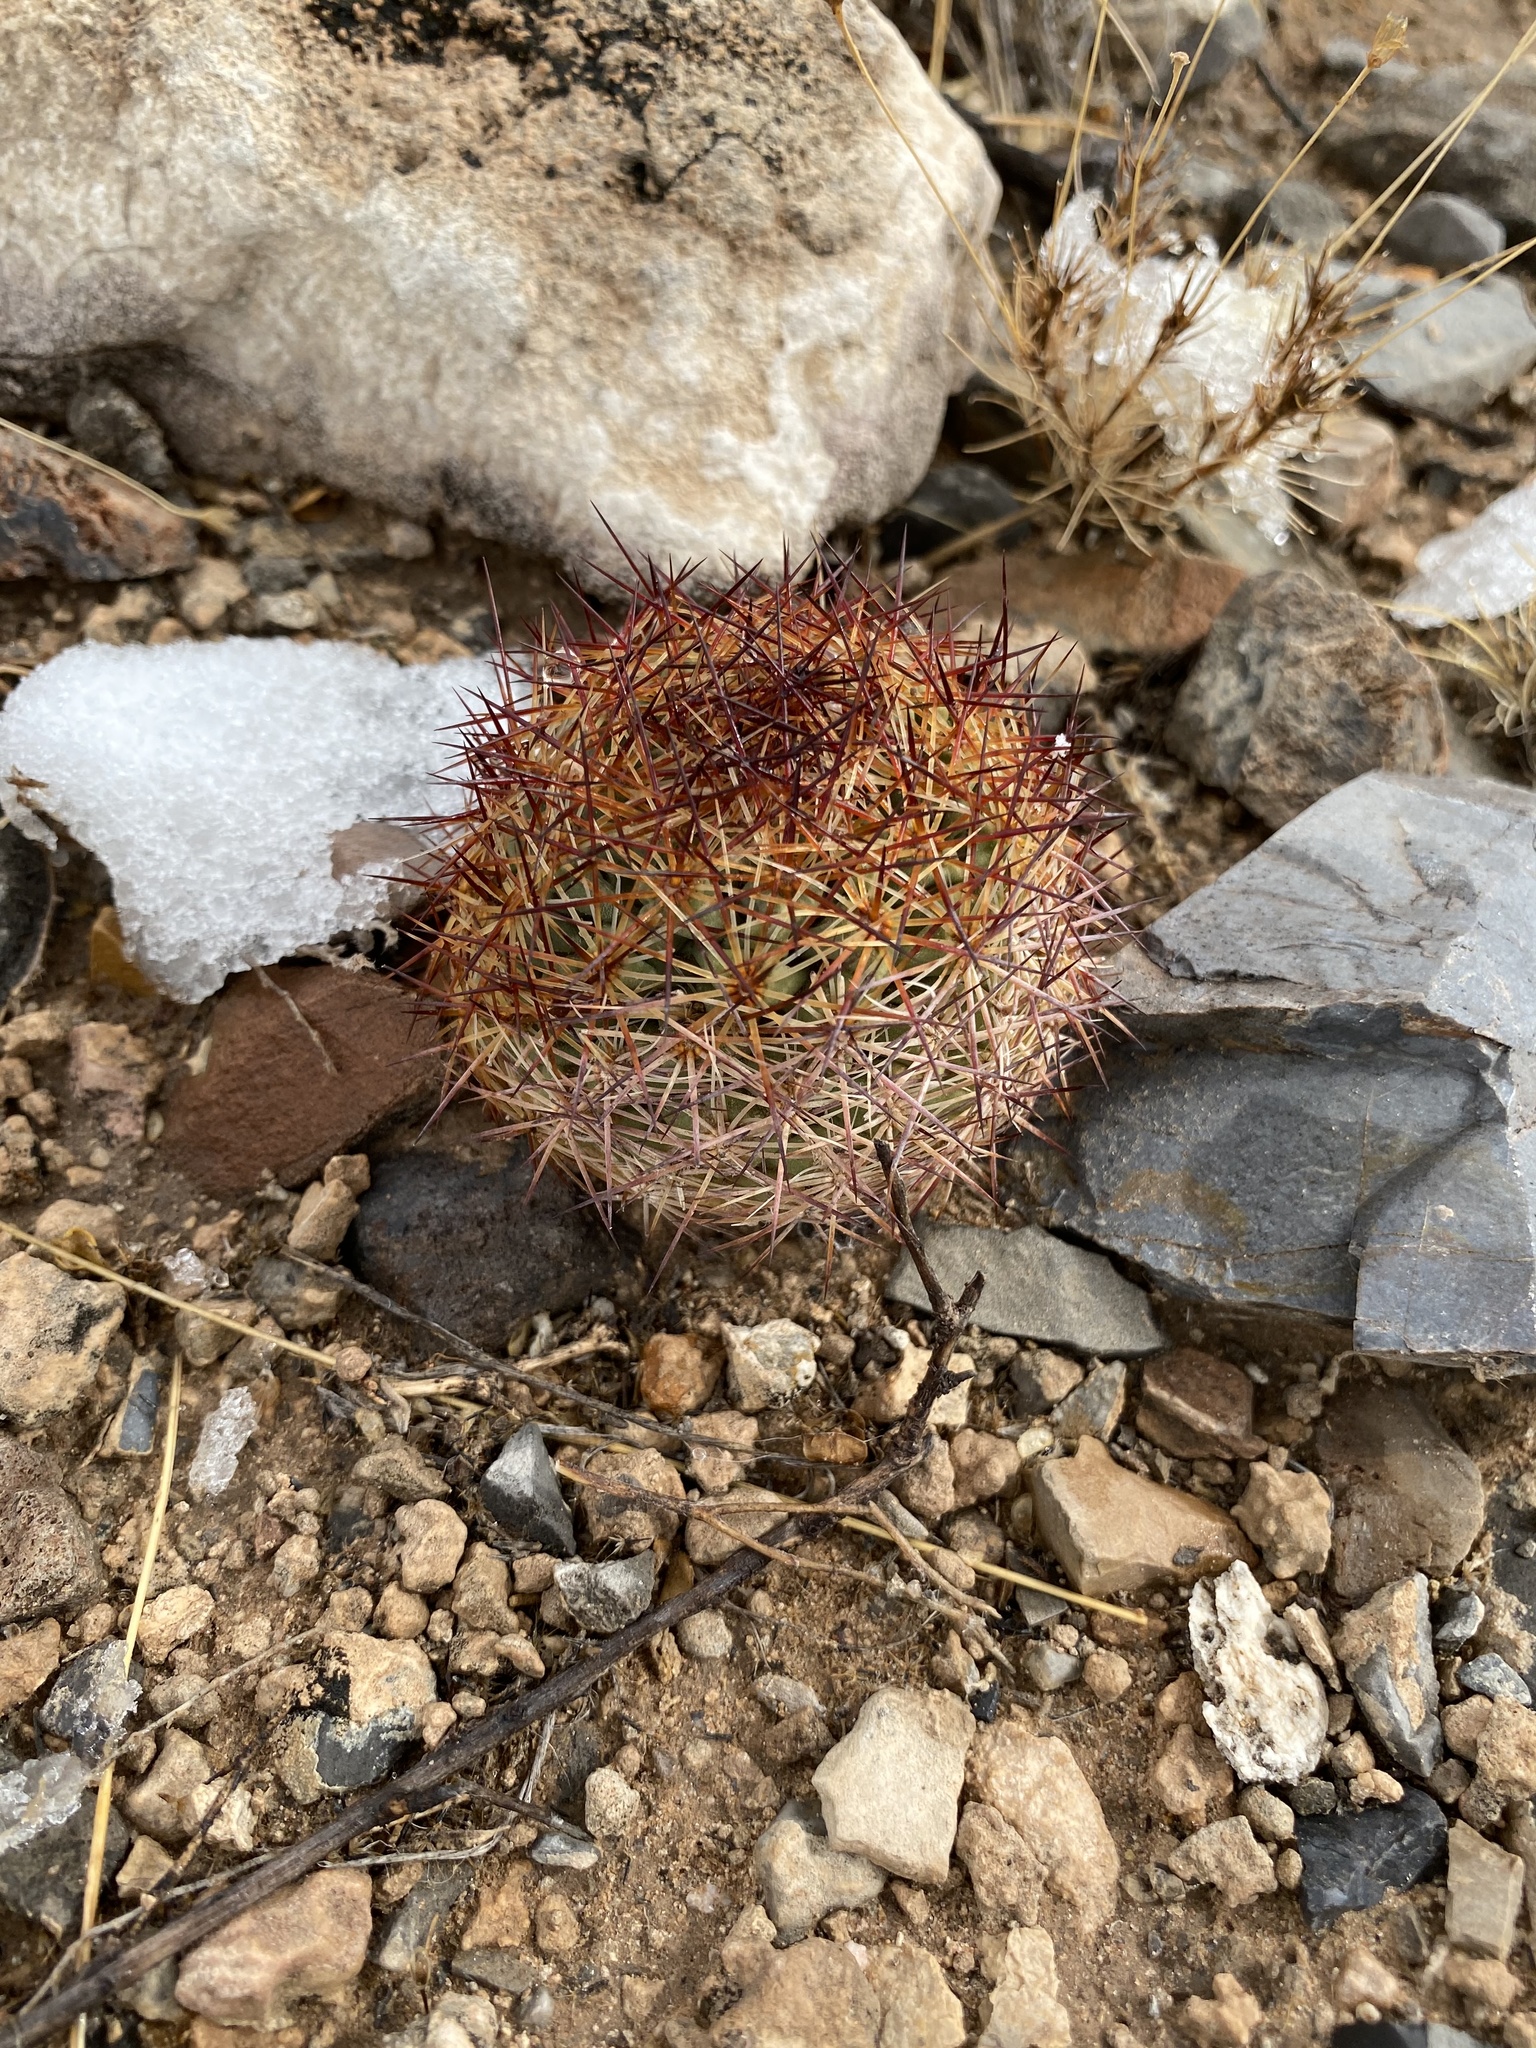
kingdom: Plantae
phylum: Tracheophyta
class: Magnoliopsida
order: Caryophyllales
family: Cactaceae
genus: Sclerocactus
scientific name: Sclerocactus intertextus
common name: White fish-hook cactus
